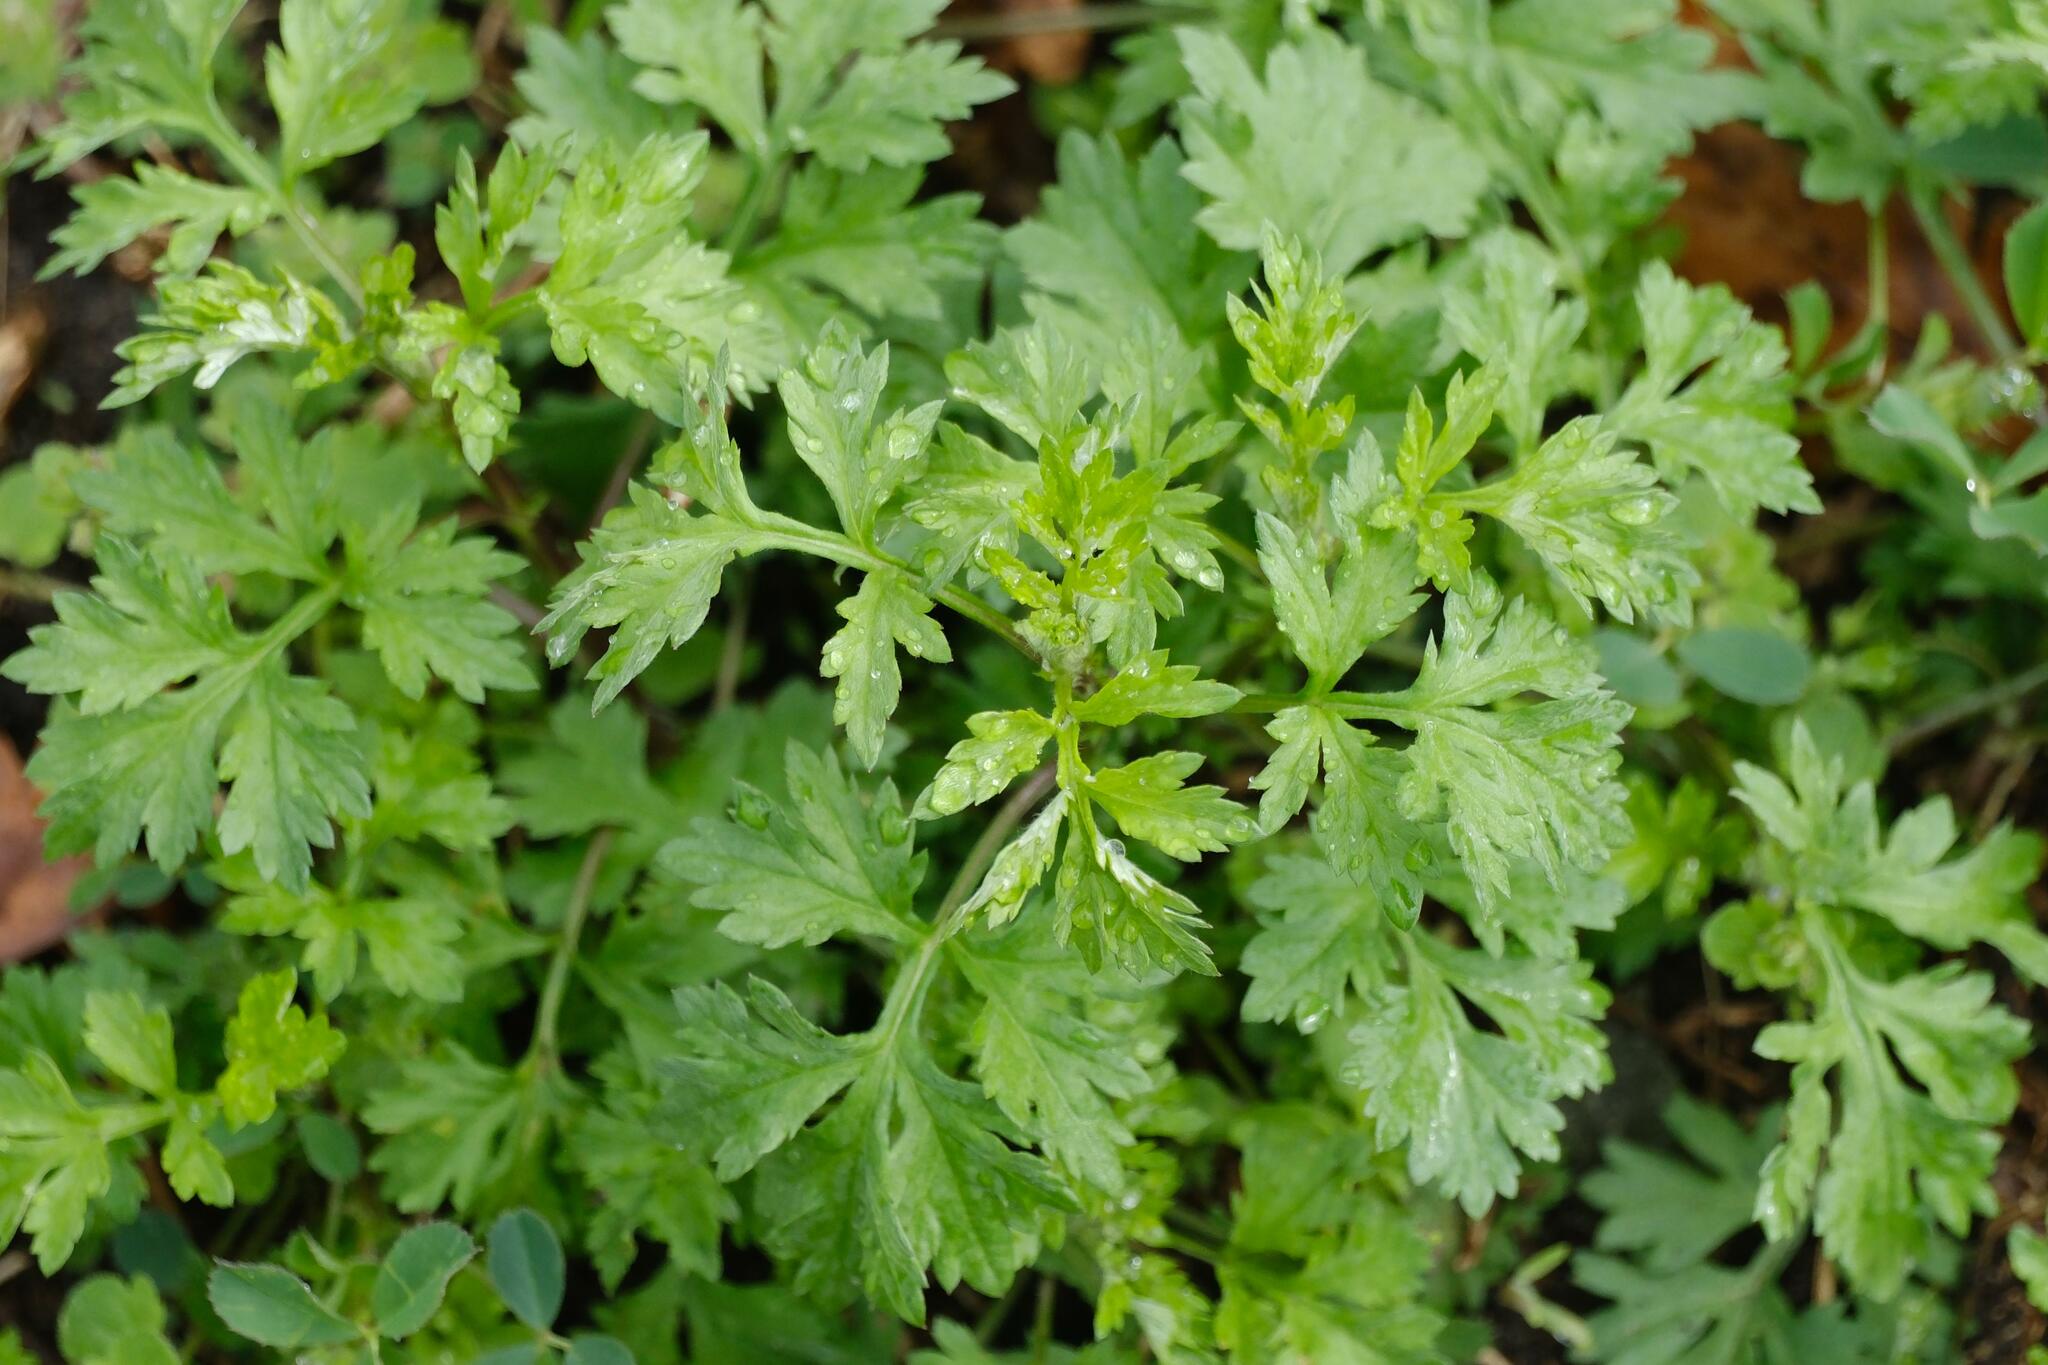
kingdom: Plantae
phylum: Tracheophyta
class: Magnoliopsida
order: Asterales
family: Asteraceae
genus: Artemisia
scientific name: Artemisia vulgaris
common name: Mugwort
